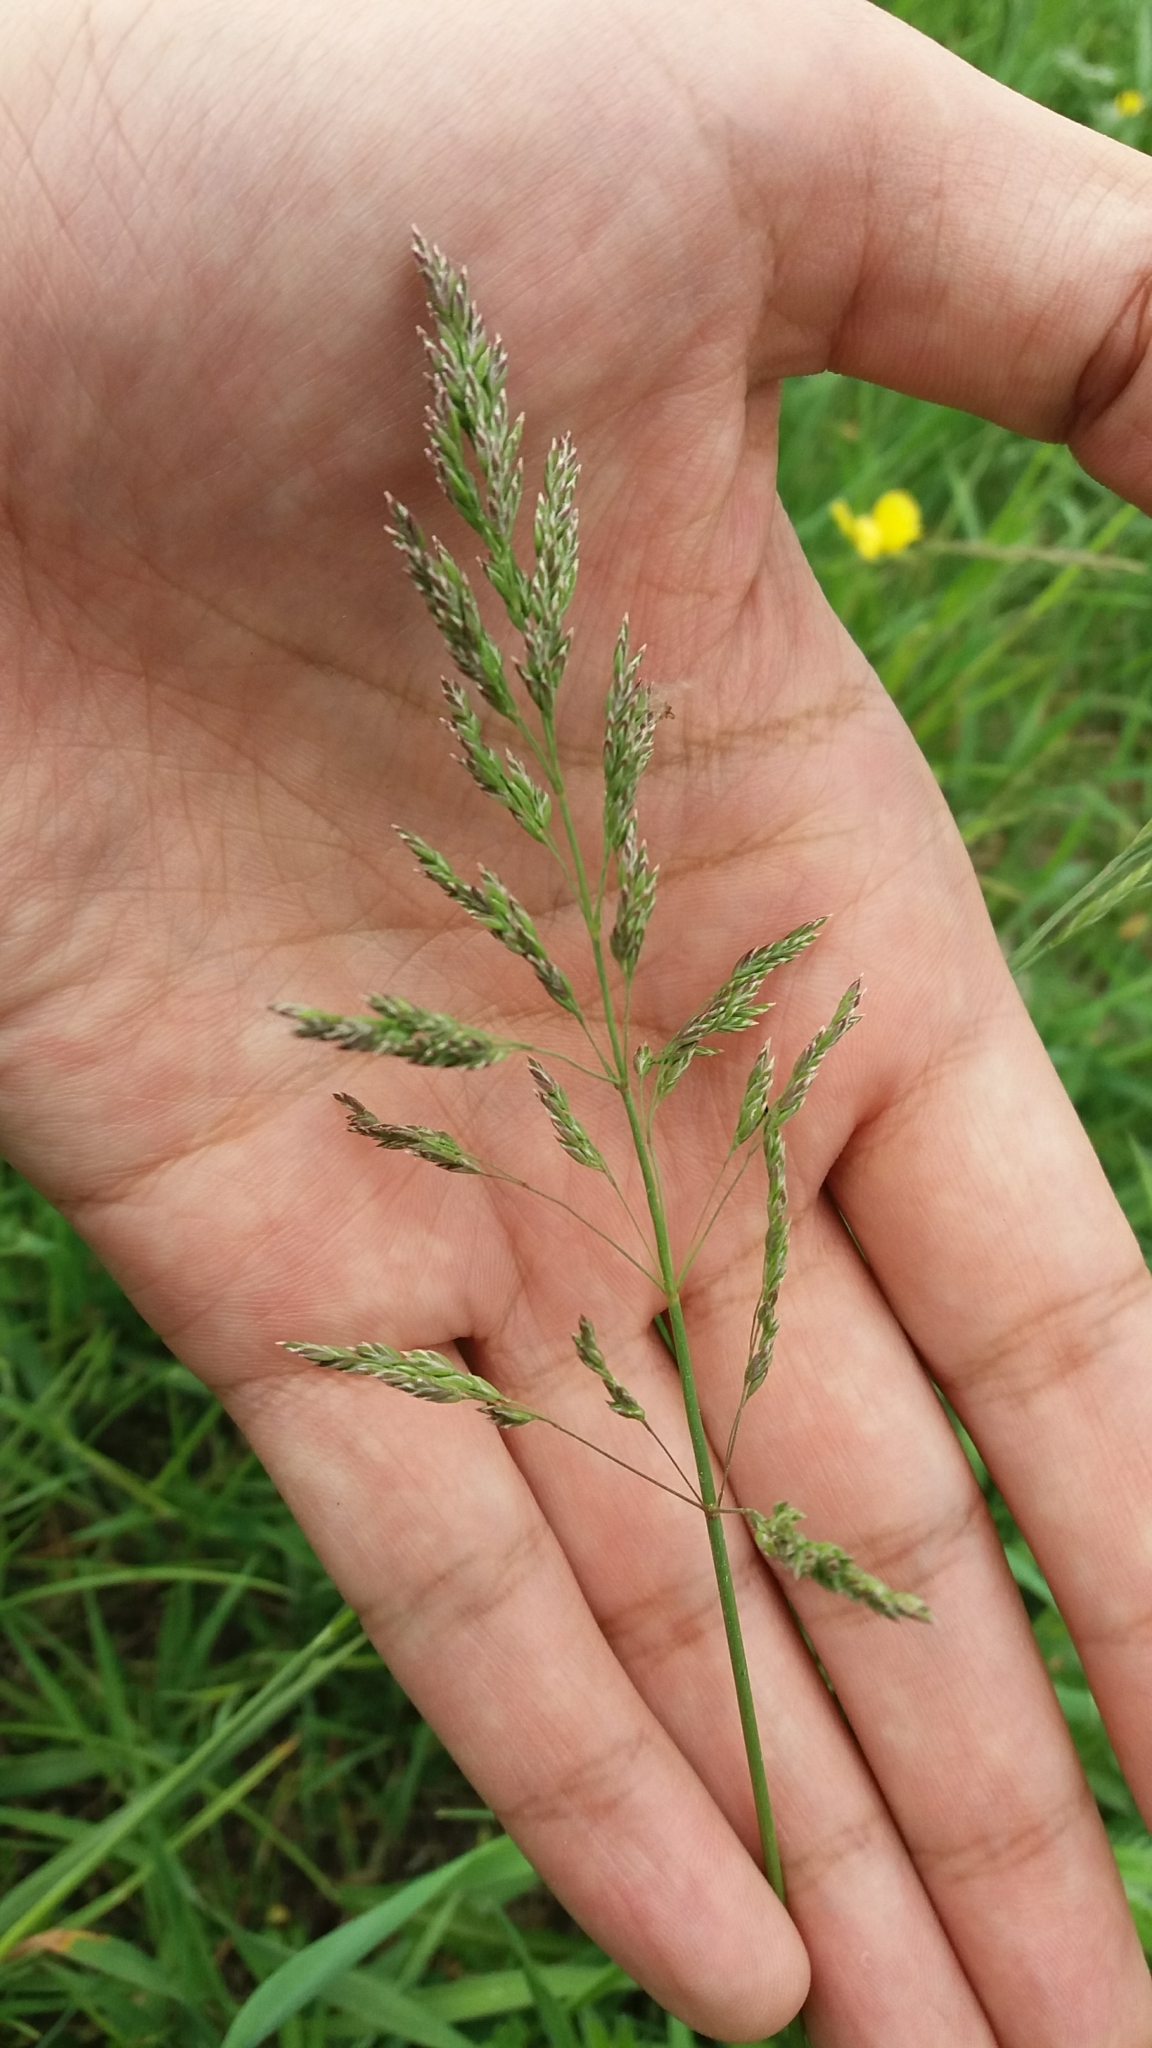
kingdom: Plantae
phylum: Tracheophyta
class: Liliopsida
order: Poales
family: Poaceae
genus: Poa
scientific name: Poa pratensis
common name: Kentucky bluegrass
